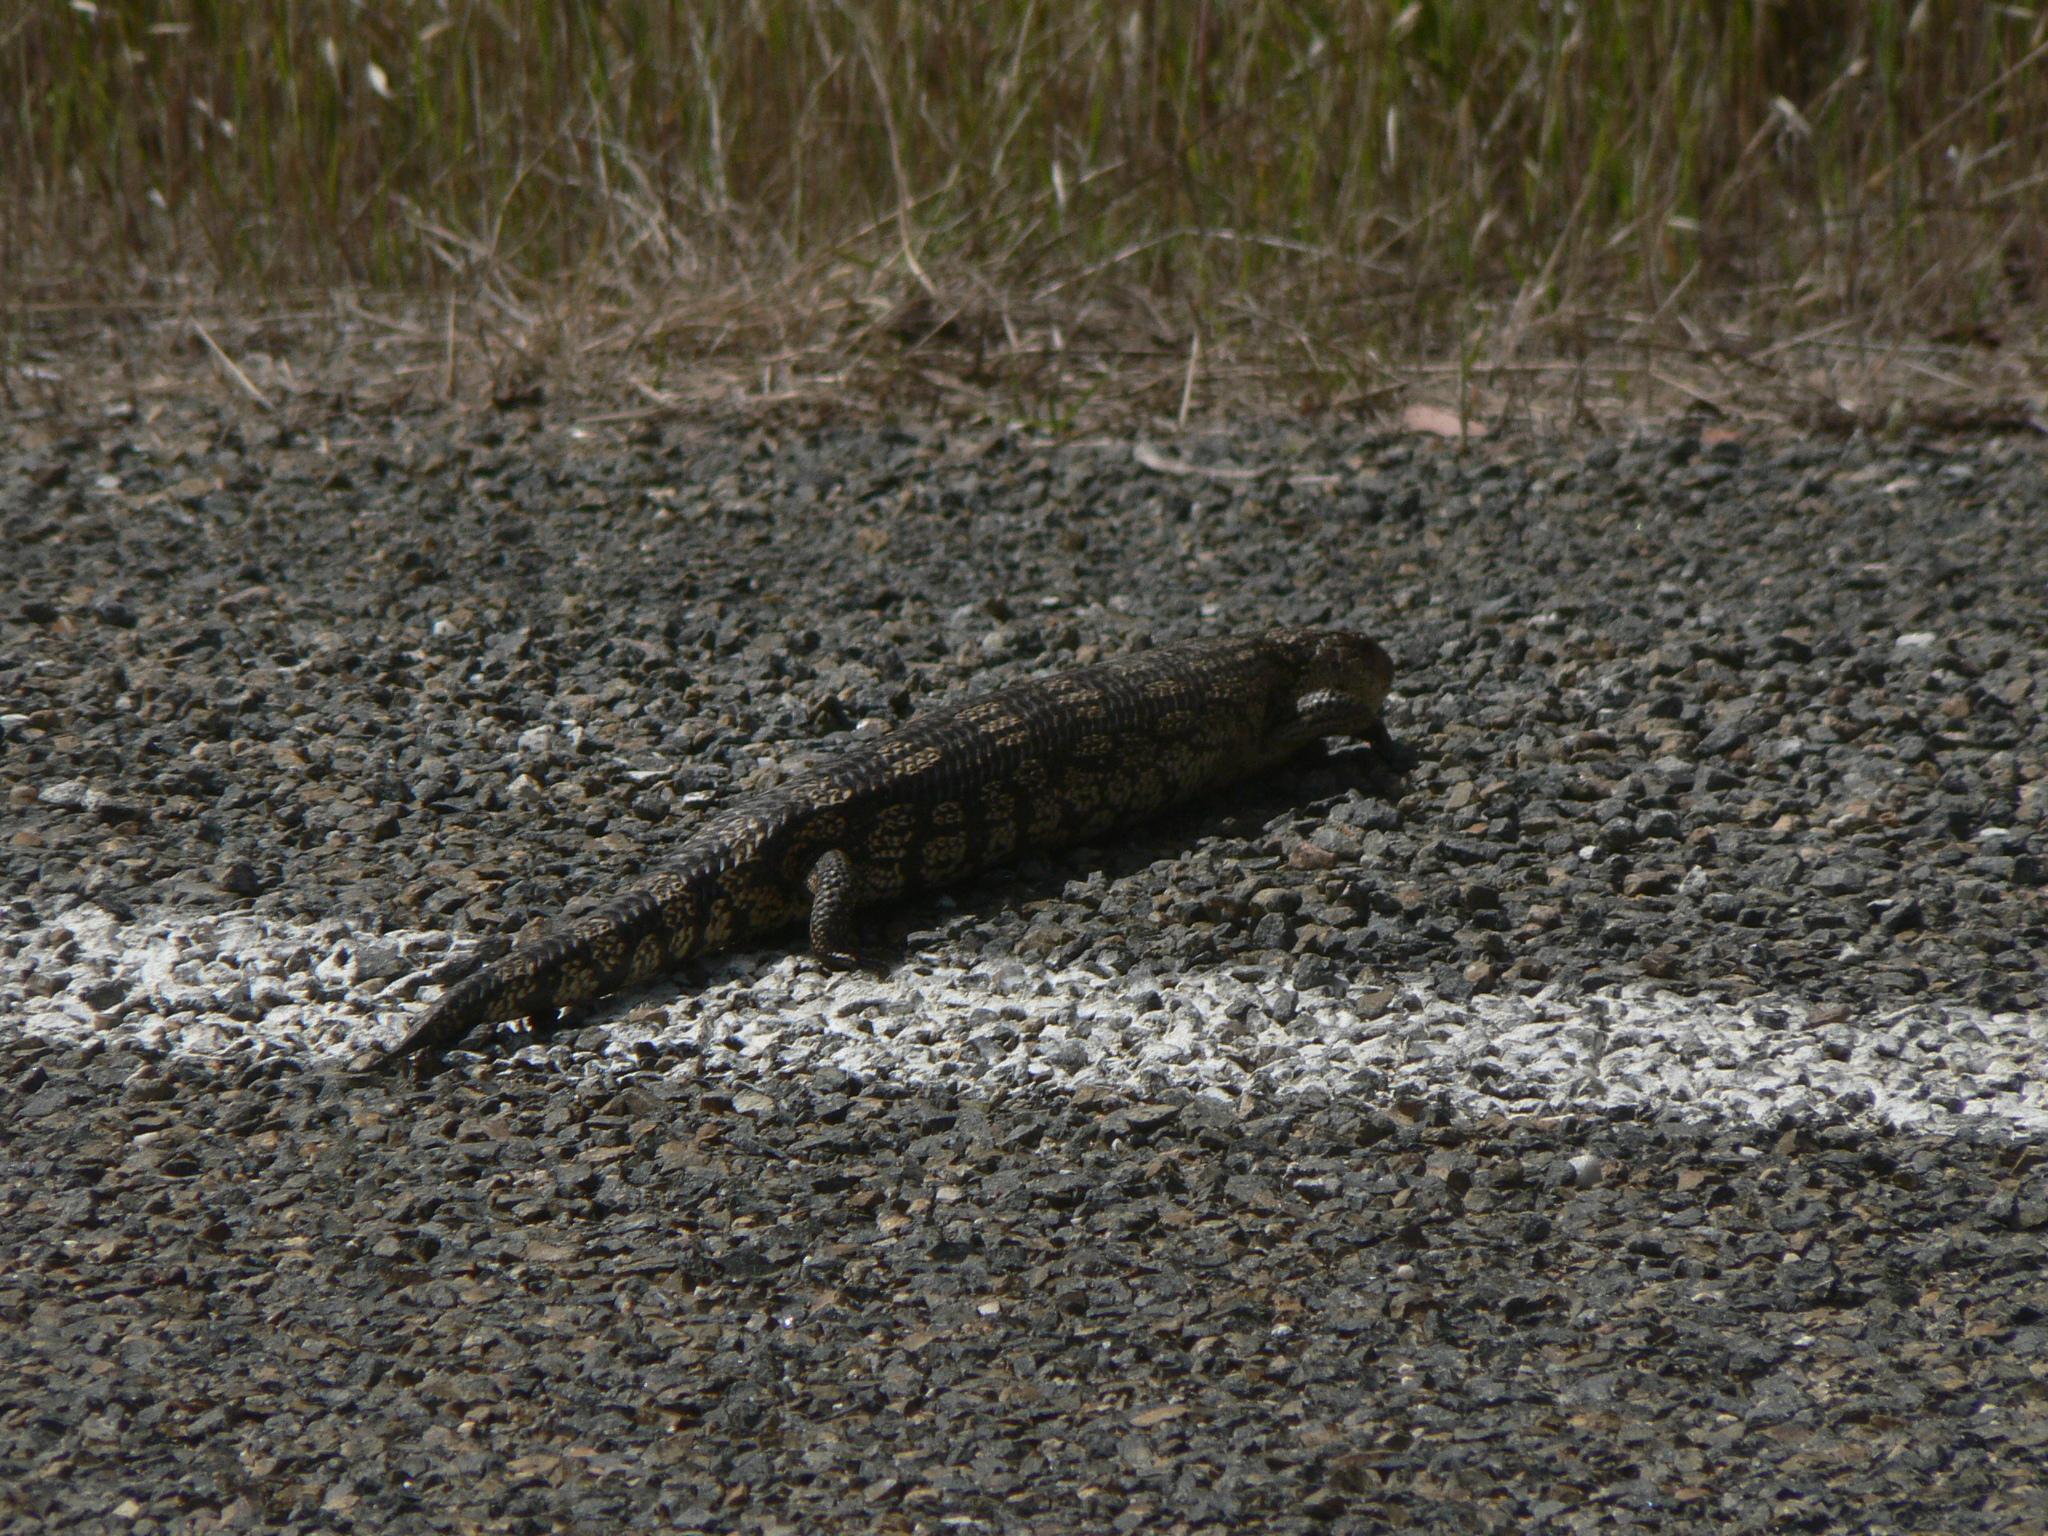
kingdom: Animalia
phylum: Chordata
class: Squamata
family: Scincidae
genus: Tiliqua
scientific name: Tiliqua nigrolutea
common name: Blotched blue-tongued lizard
